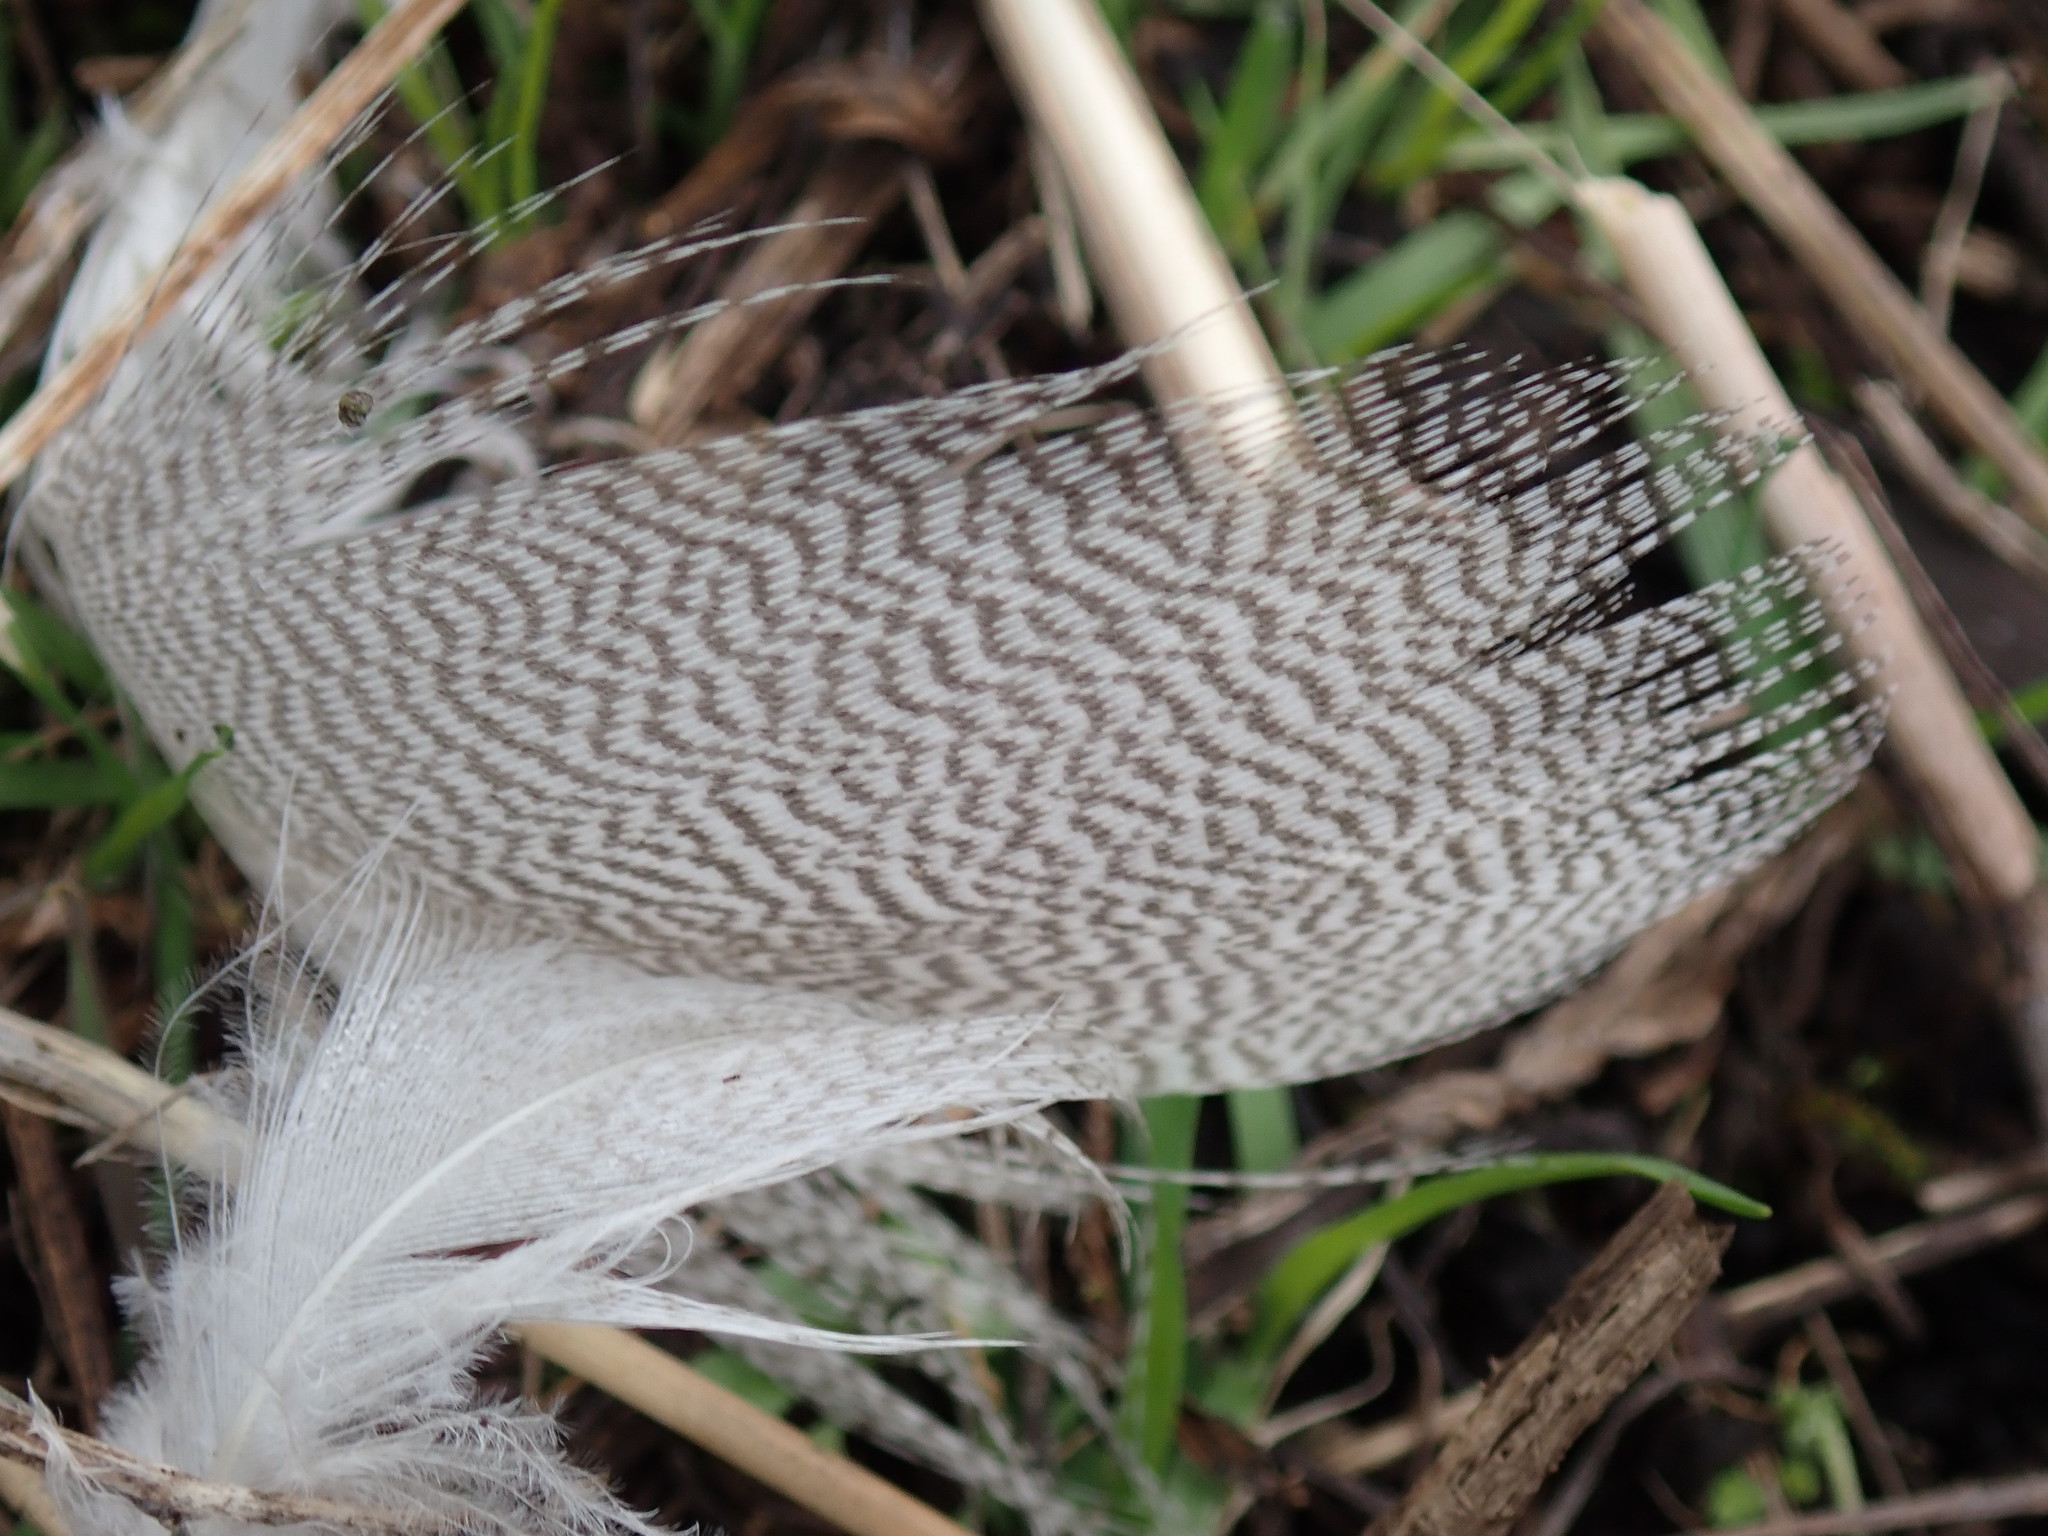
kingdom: Animalia
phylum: Chordata
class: Aves
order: Anseriformes
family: Anatidae
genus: Anas
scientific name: Anas platyrhynchos
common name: Mallard
